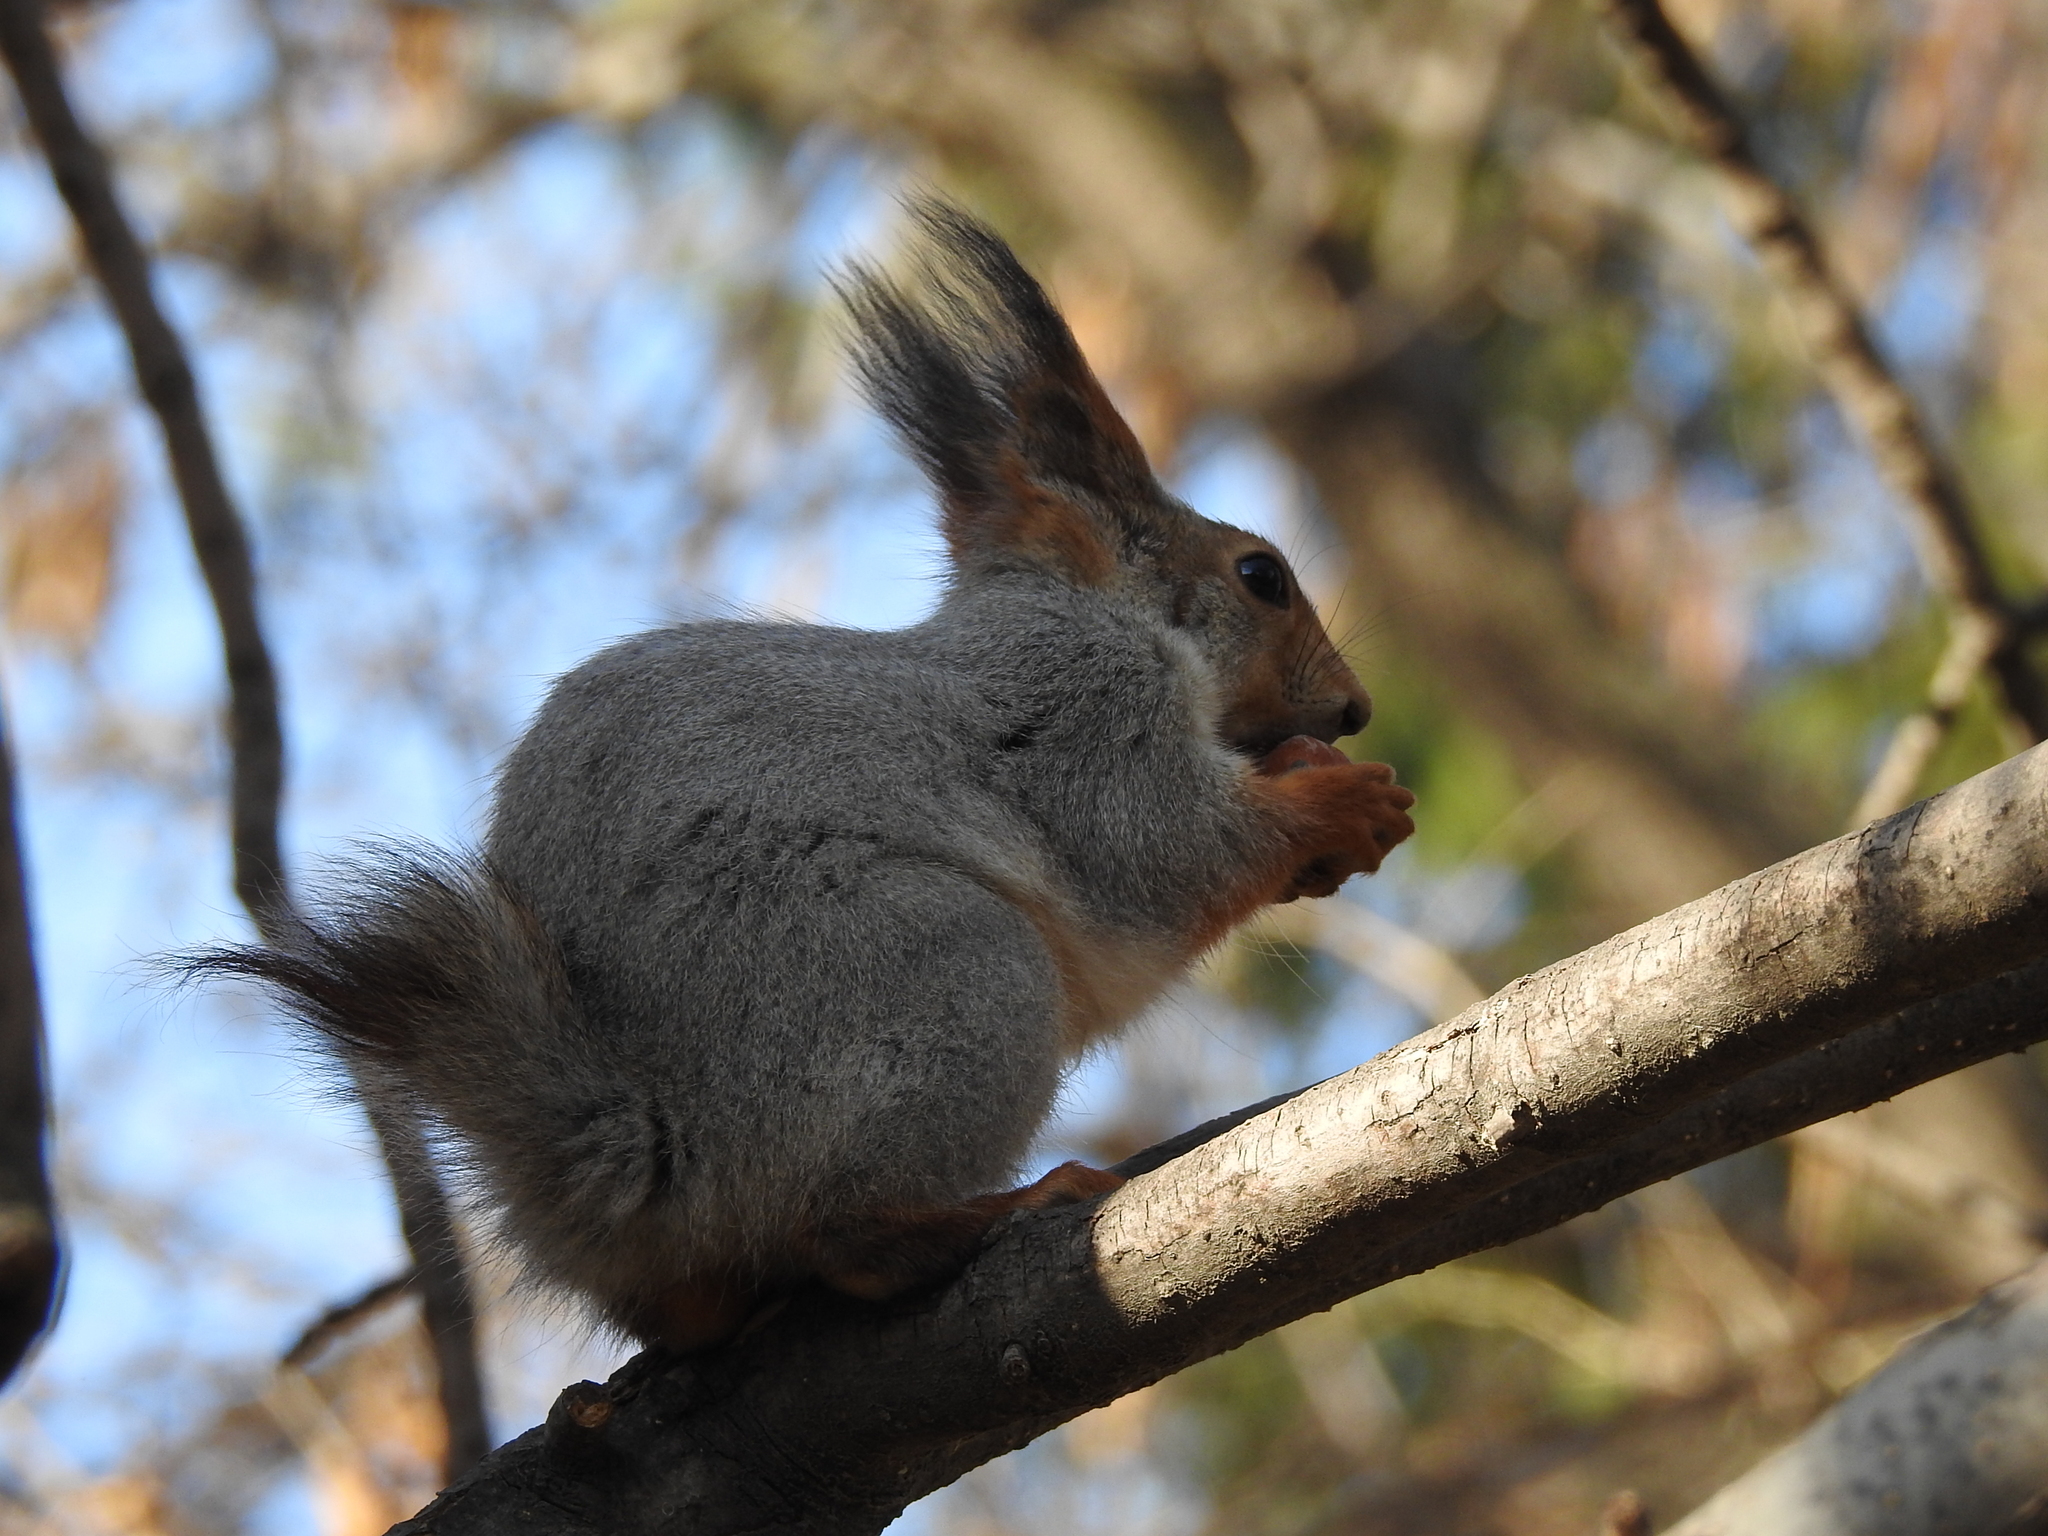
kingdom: Animalia
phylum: Chordata
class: Mammalia
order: Rodentia
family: Sciuridae
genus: Sciurus
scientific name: Sciurus vulgaris
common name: Eurasian red squirrel
